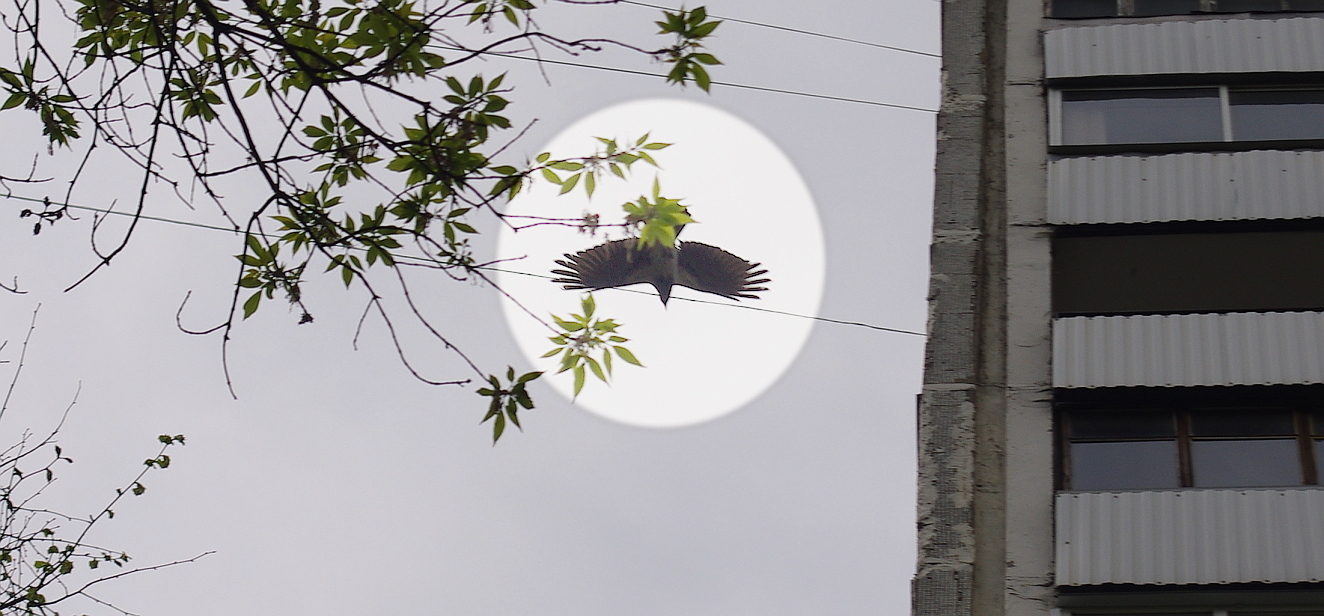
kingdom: Animalia
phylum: Chordata
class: Aves
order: Passeriformes
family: Corvidae
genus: Corvus
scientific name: Corvus cornix
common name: Hooded crow
